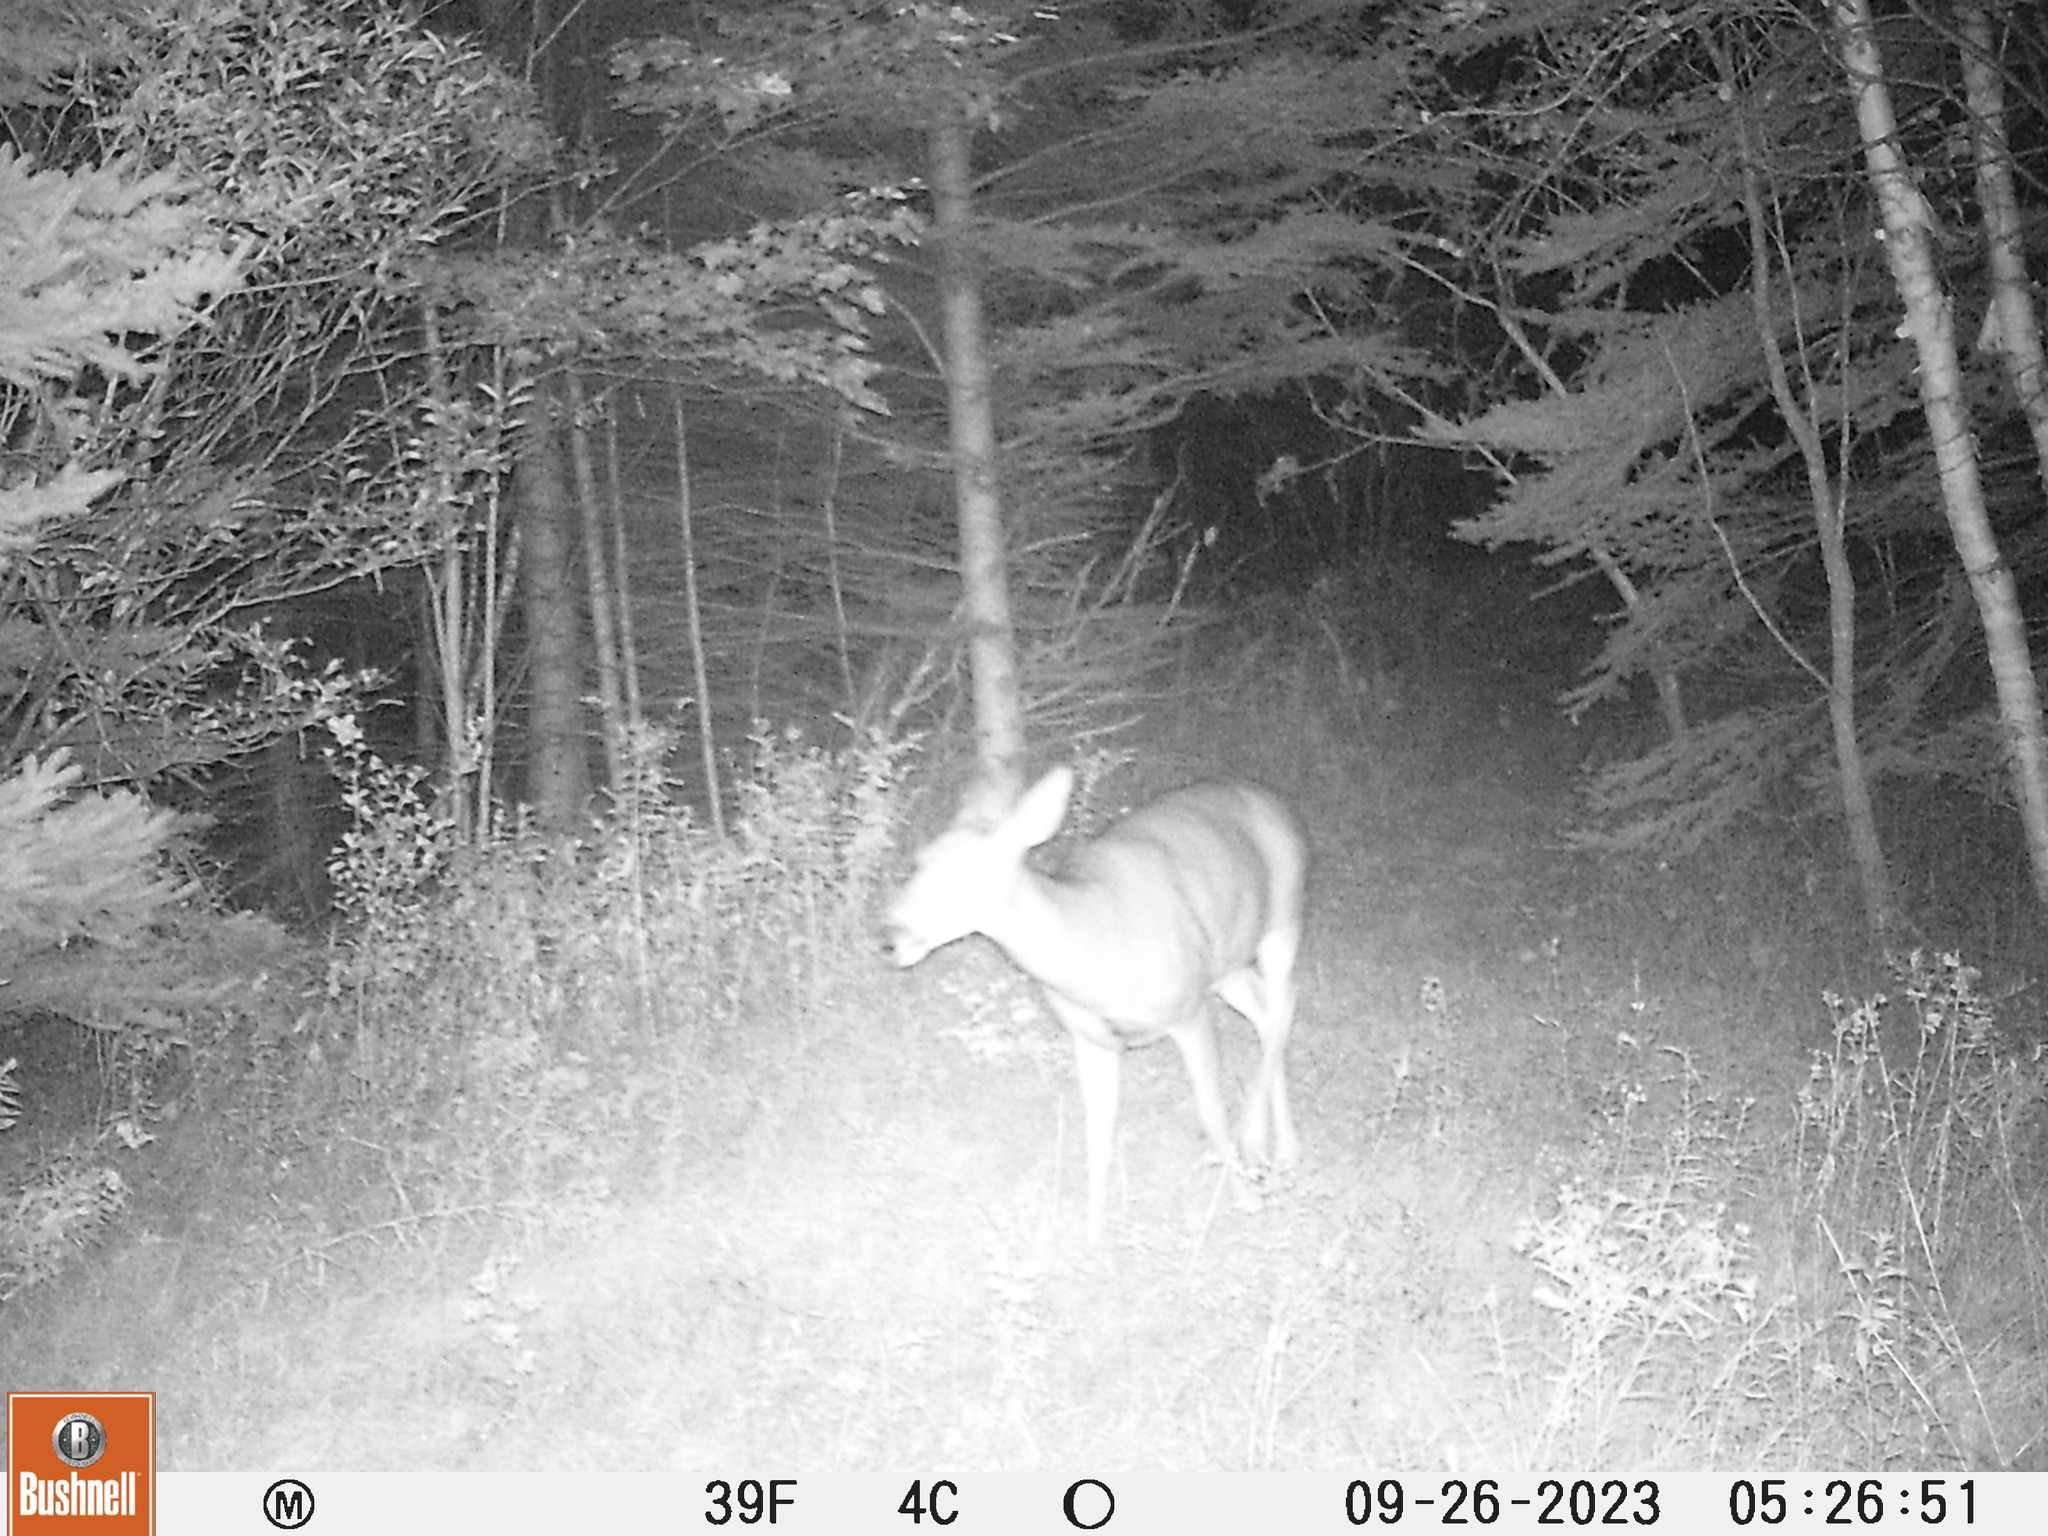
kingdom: Animalia
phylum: Chordata
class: Mammalia
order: Artiodactyla
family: Cervidae
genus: Odocoileus
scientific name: Odocoileus virginianus
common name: White-tailed deer
